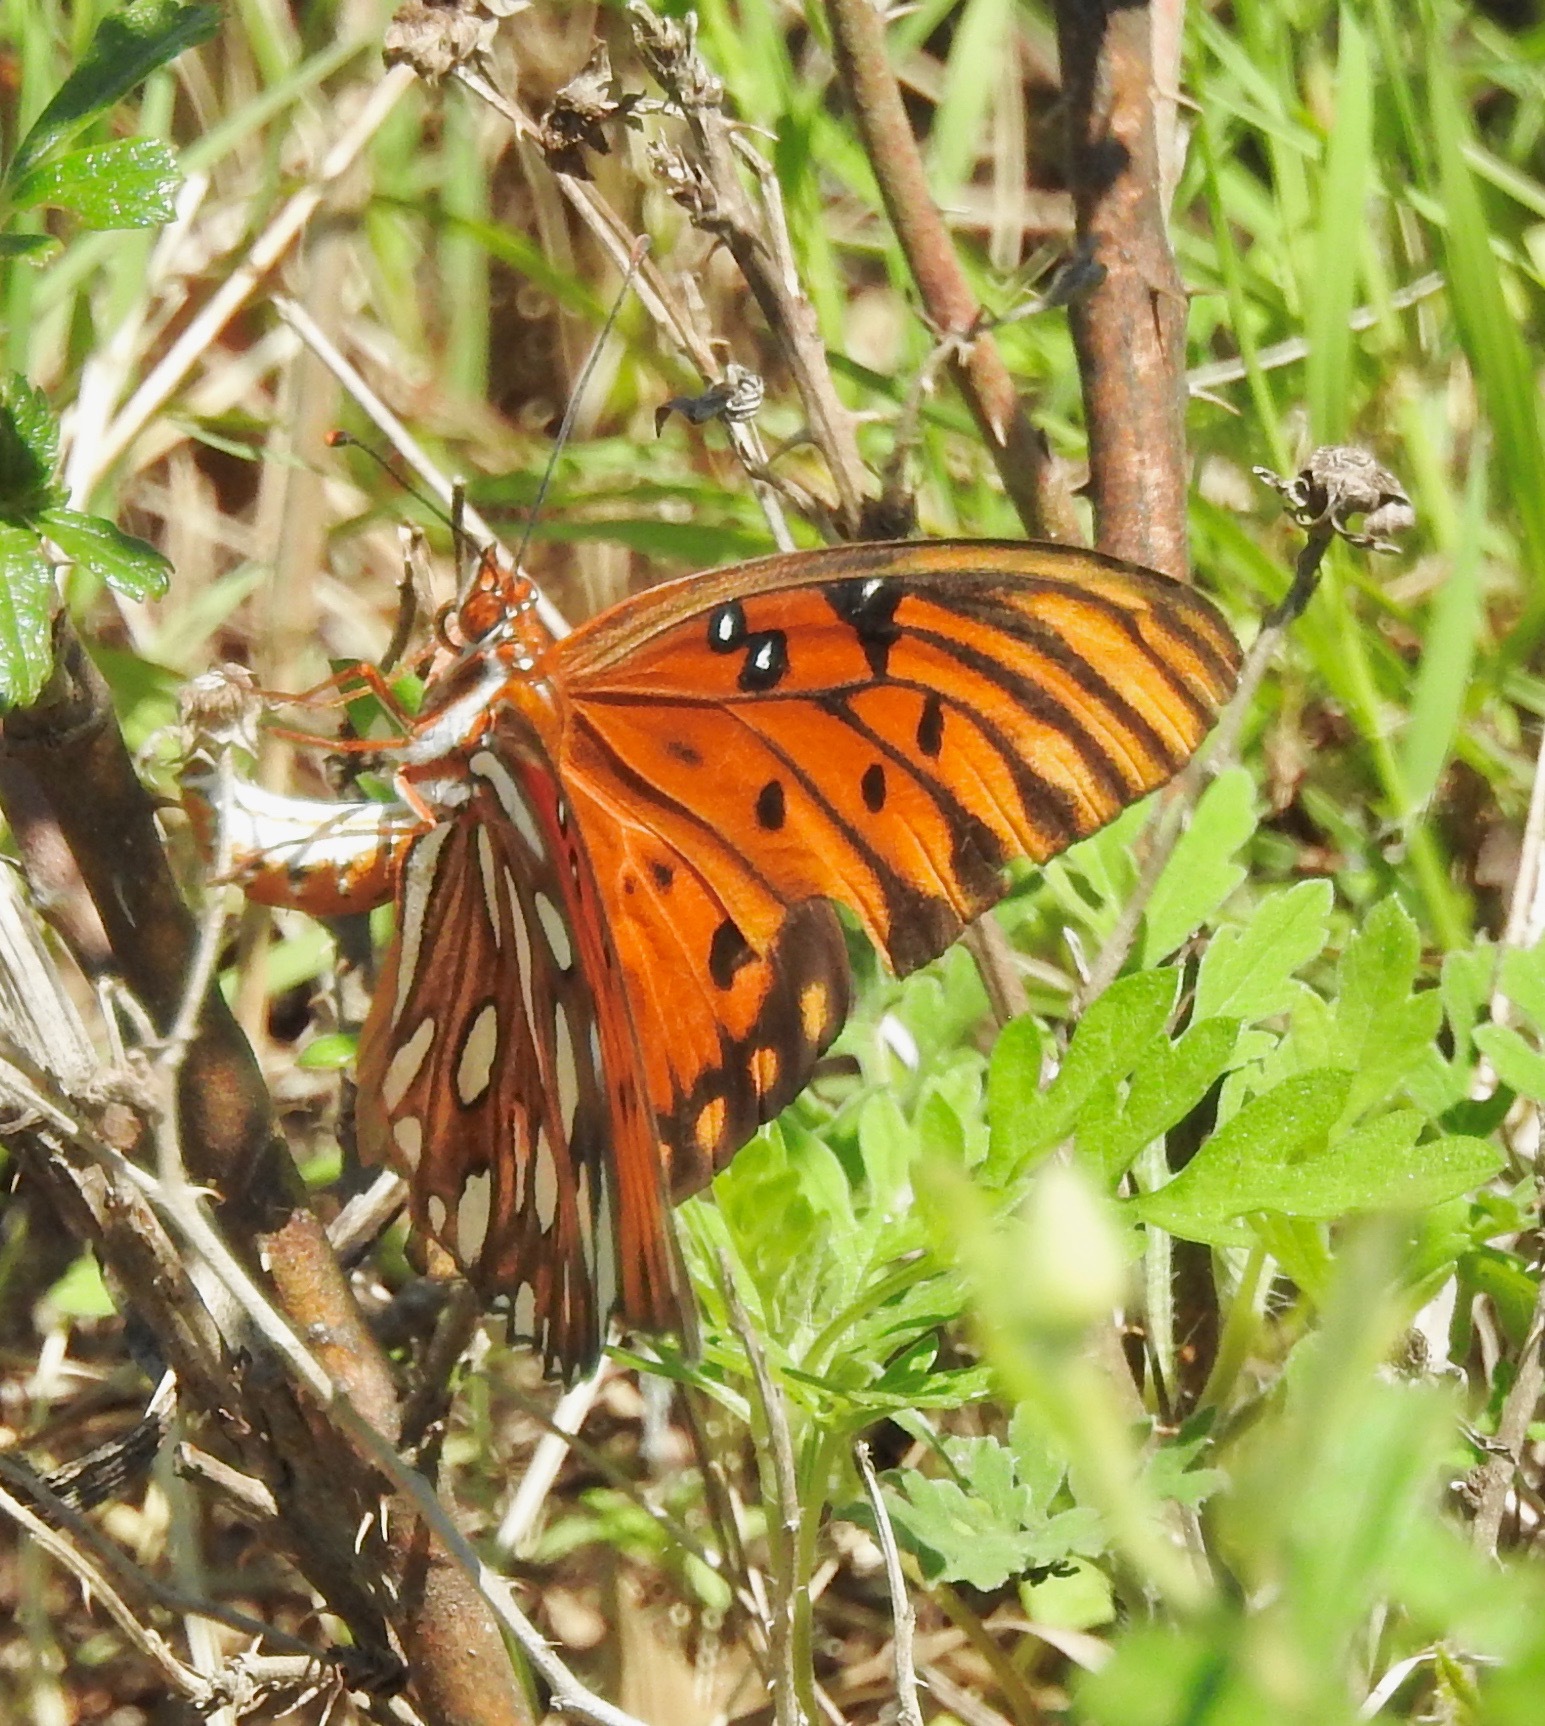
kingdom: Animalia
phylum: Arthropoda
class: Insecta
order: Lepidoptera
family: Nymphalidae
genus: Dione
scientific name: Dione vanillae
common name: Gulf fritillary
